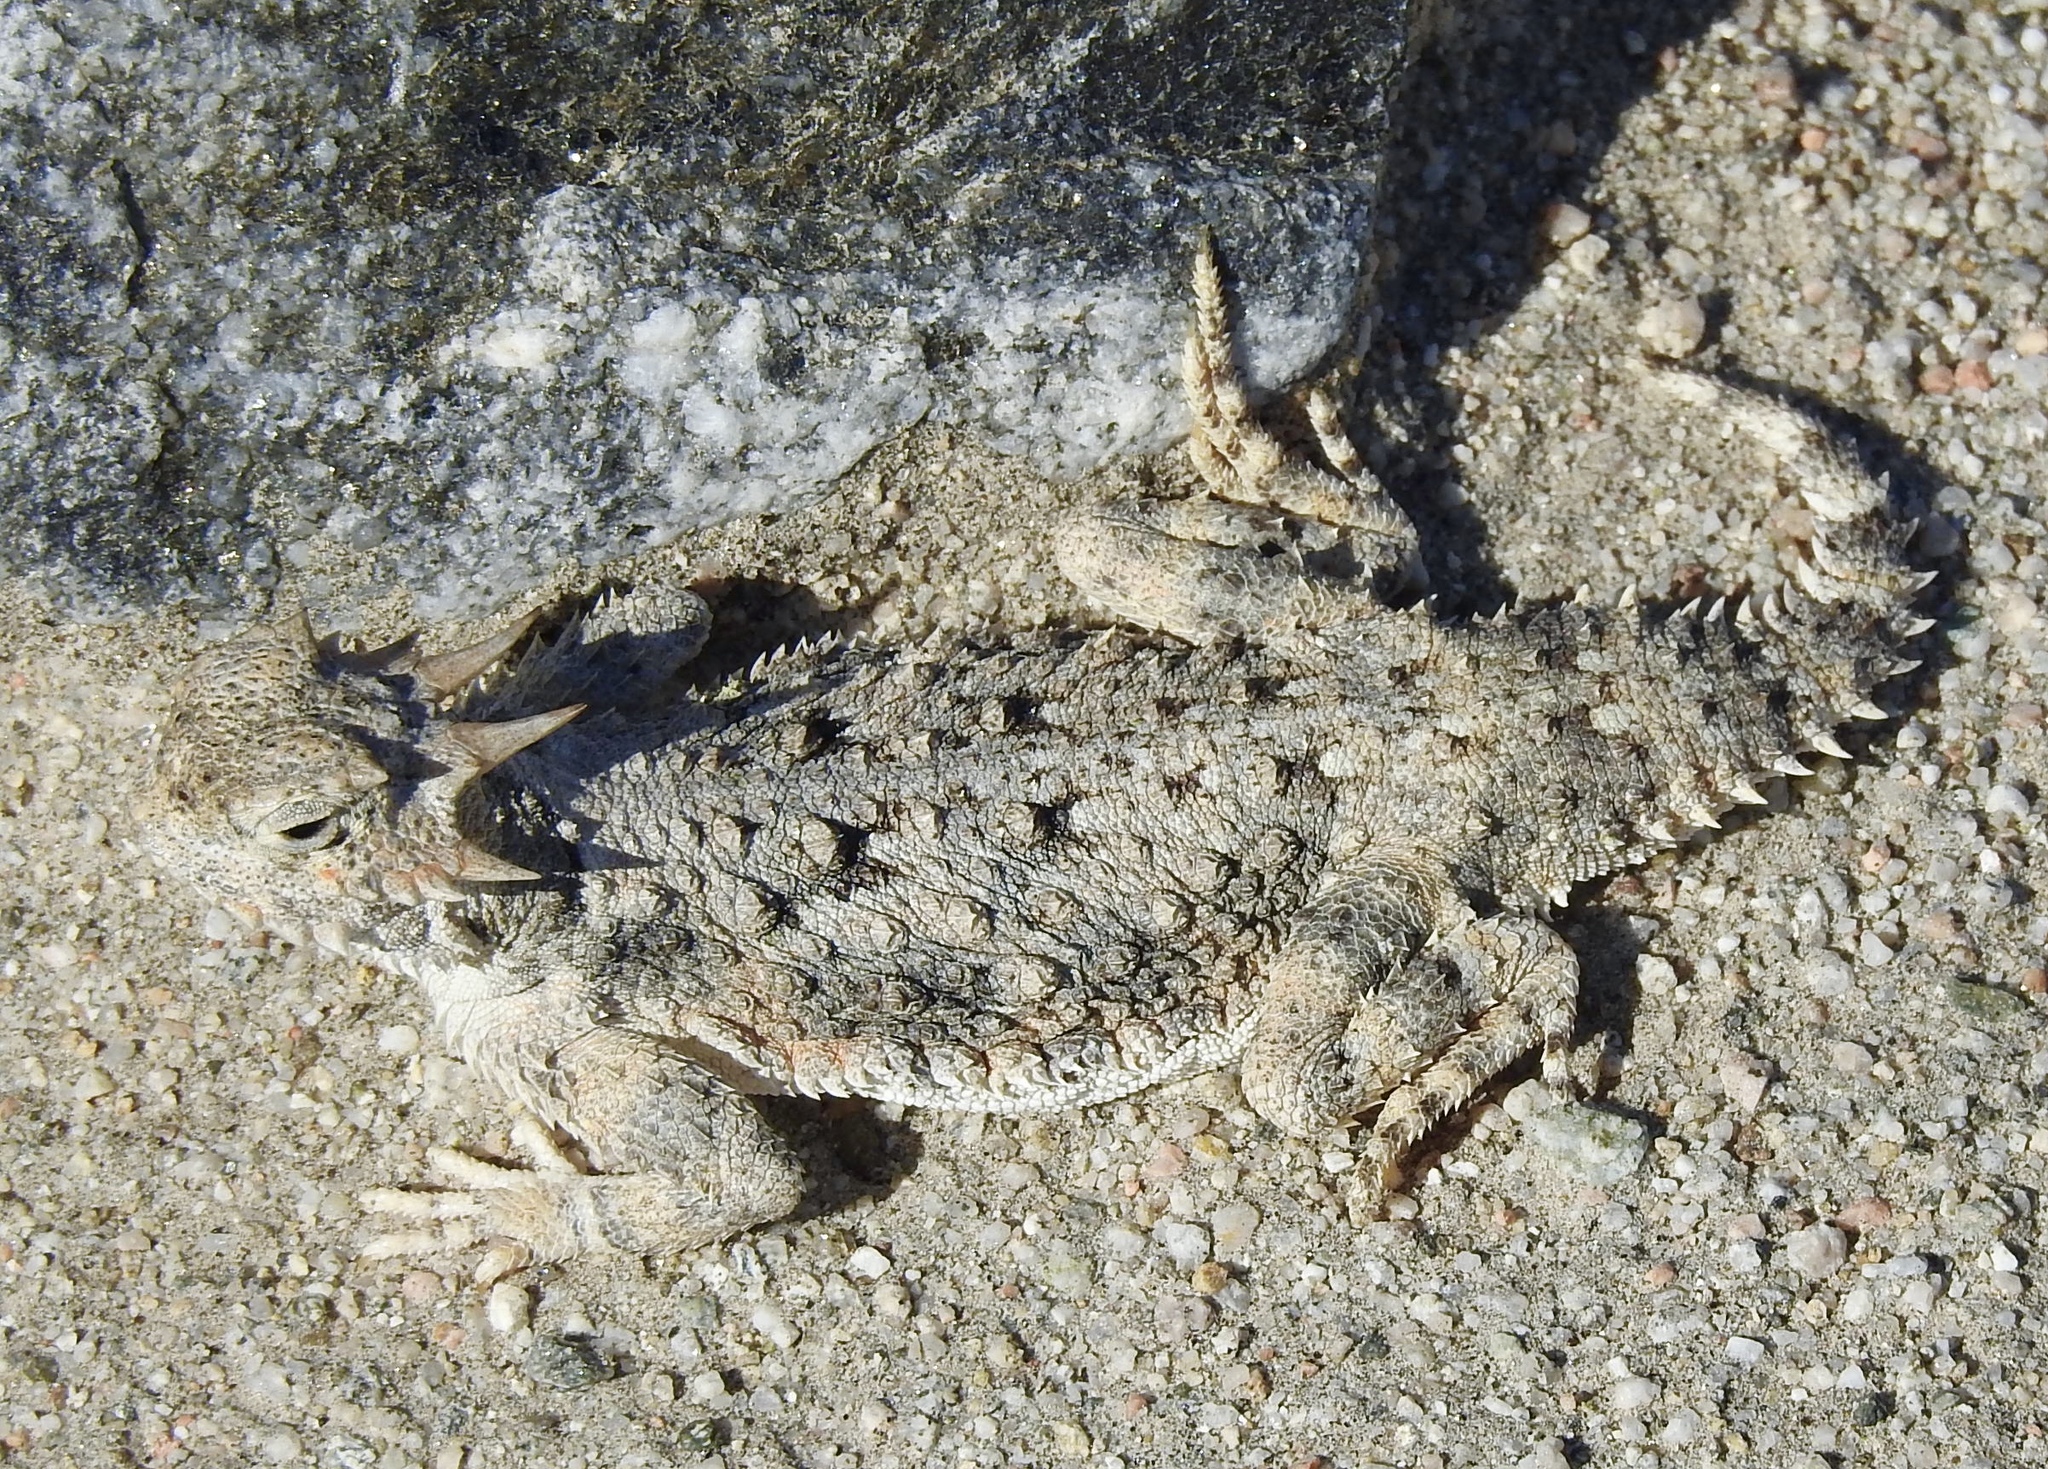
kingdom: Animalia
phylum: Chordata
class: Squamata
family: Phrynosomatidae
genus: Phrynosoma
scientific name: Phrynosoma platyrhinos
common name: Desert horned lizard
